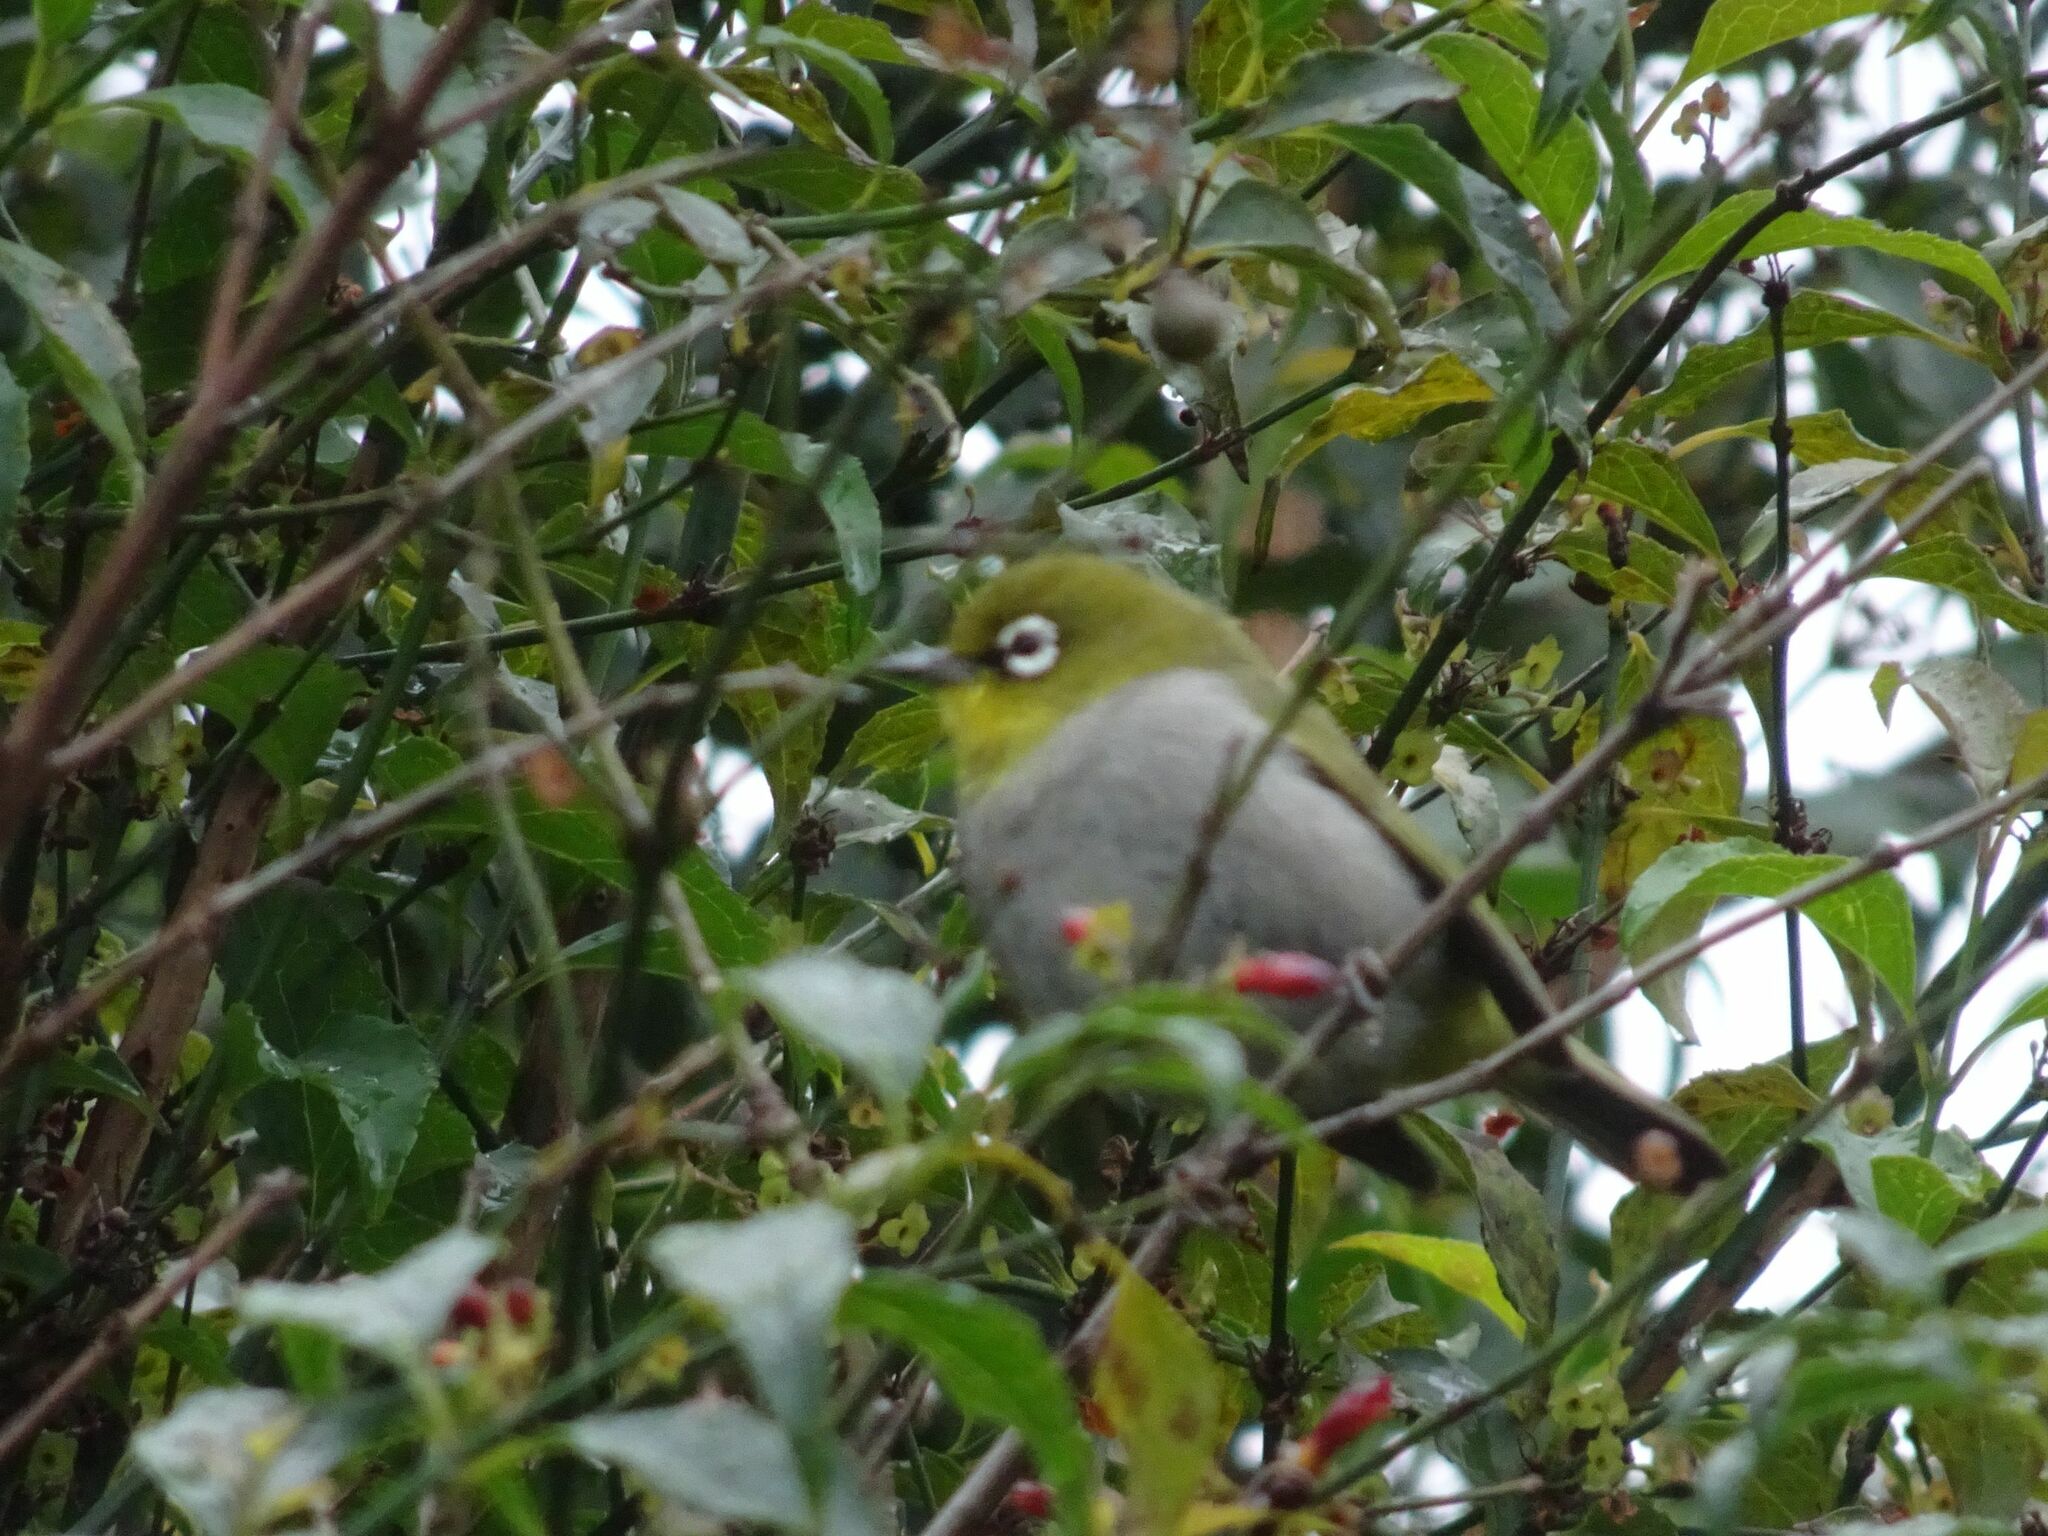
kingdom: Animalia
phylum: Chordata
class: Aves
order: Passeriformes
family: Zosteropidae
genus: Zosterops
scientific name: Zosterops virens
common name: Cape white-eye
